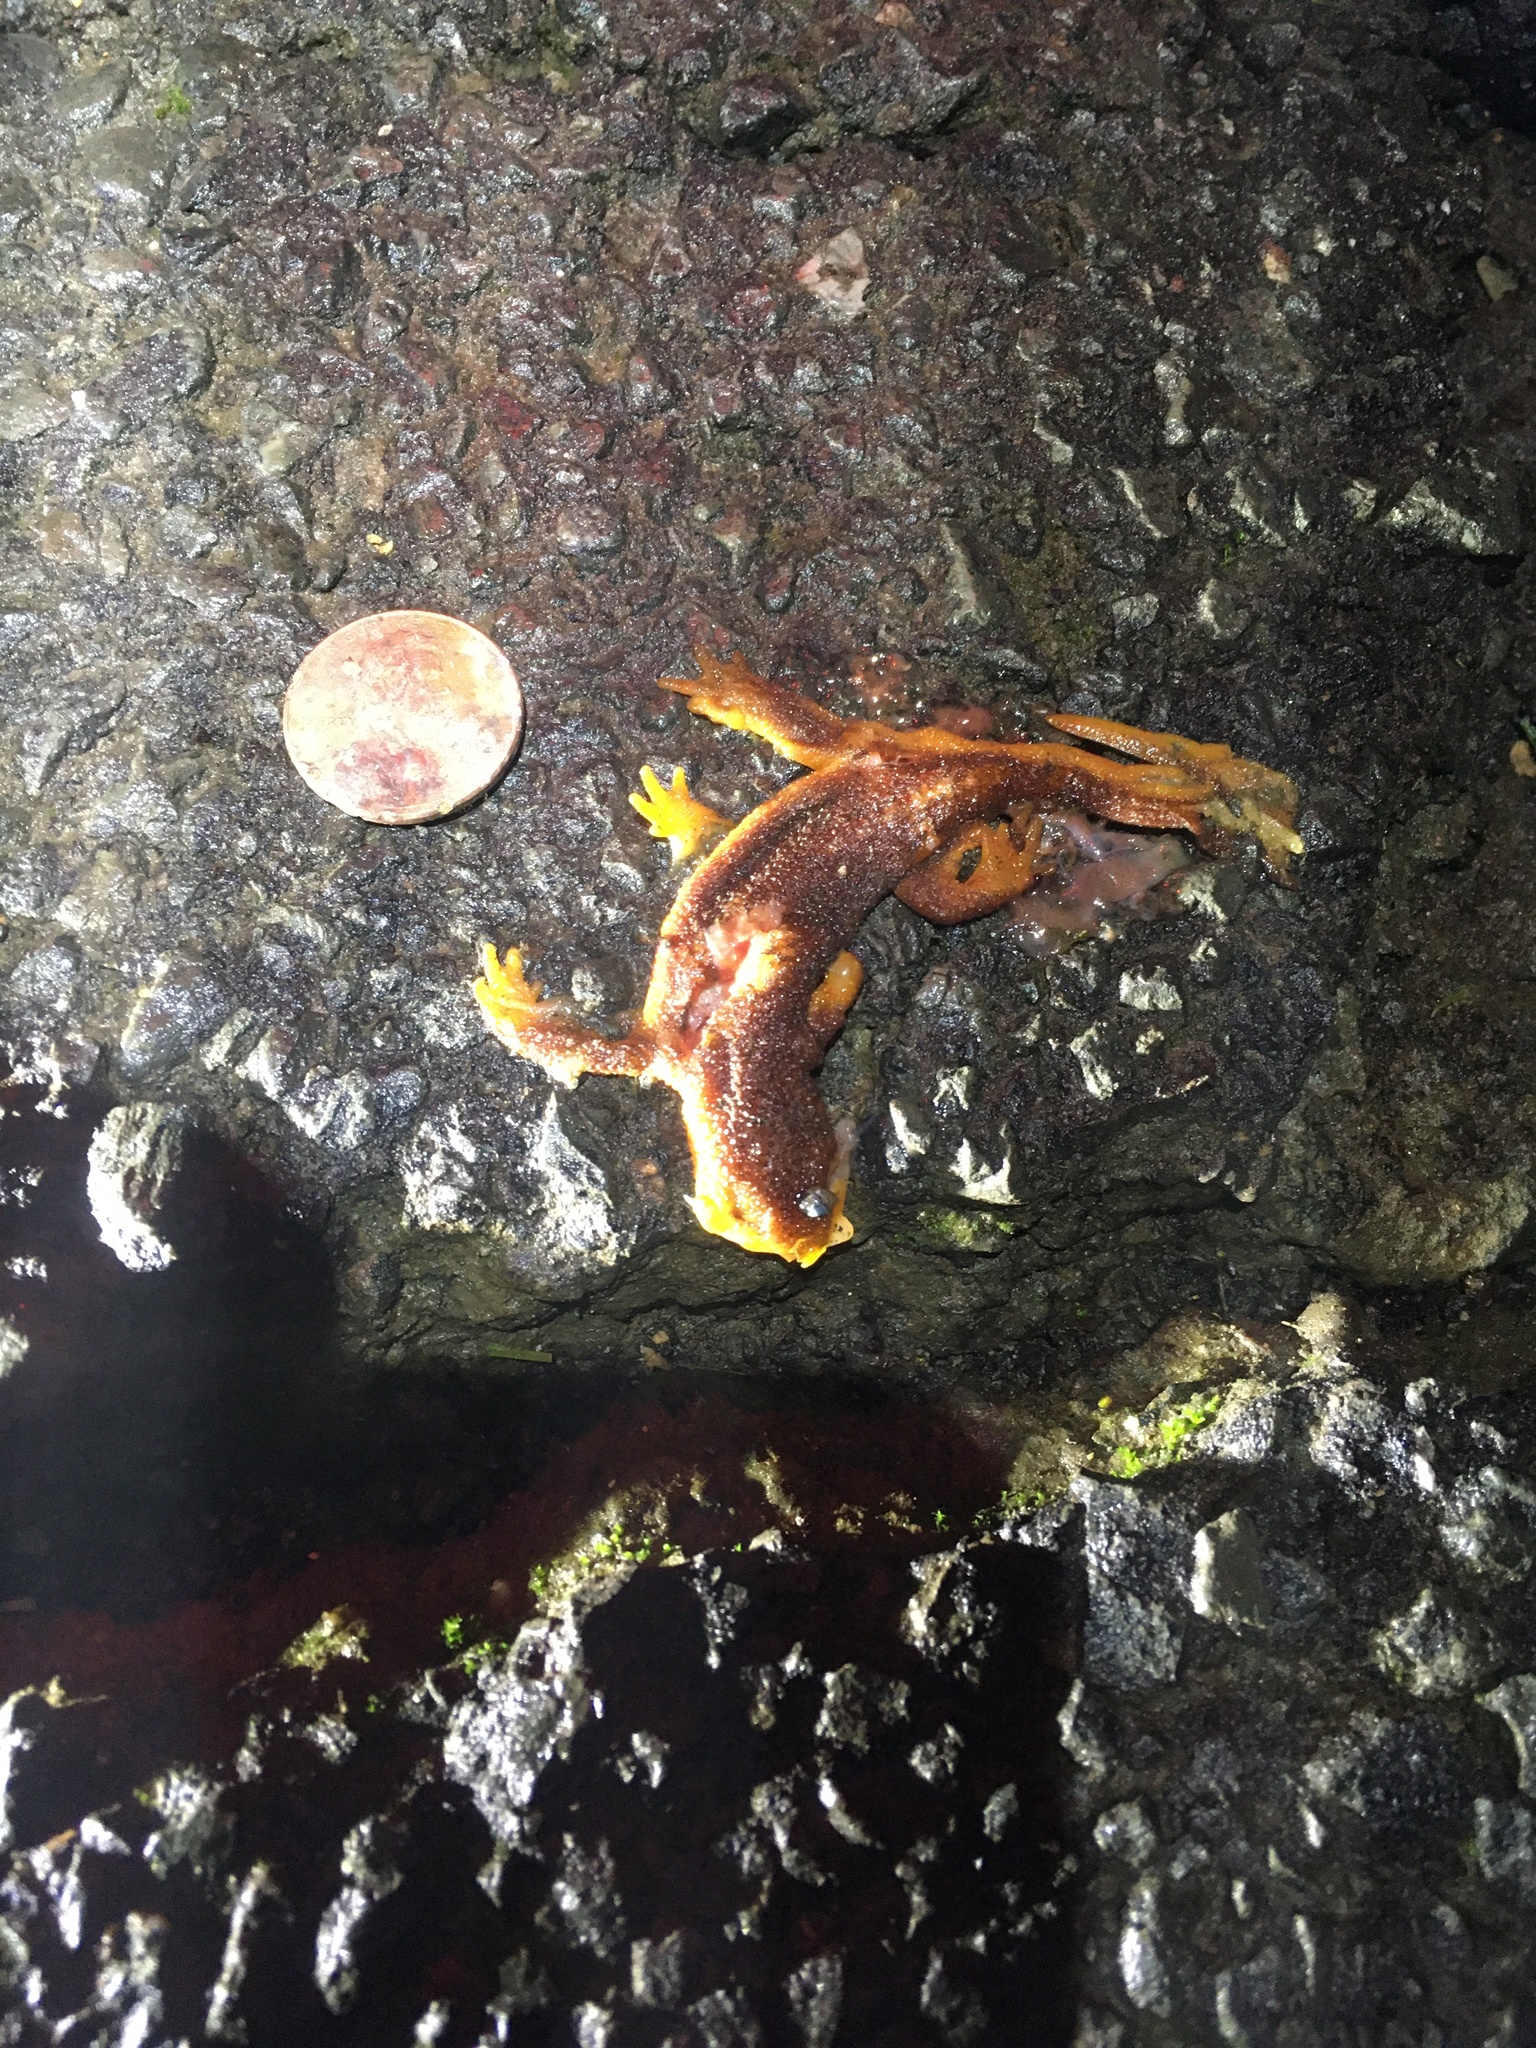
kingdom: Animalia
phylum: Chordata
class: Amphibia
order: Caudata
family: Salamandridae
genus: Taricha
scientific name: Taricha
